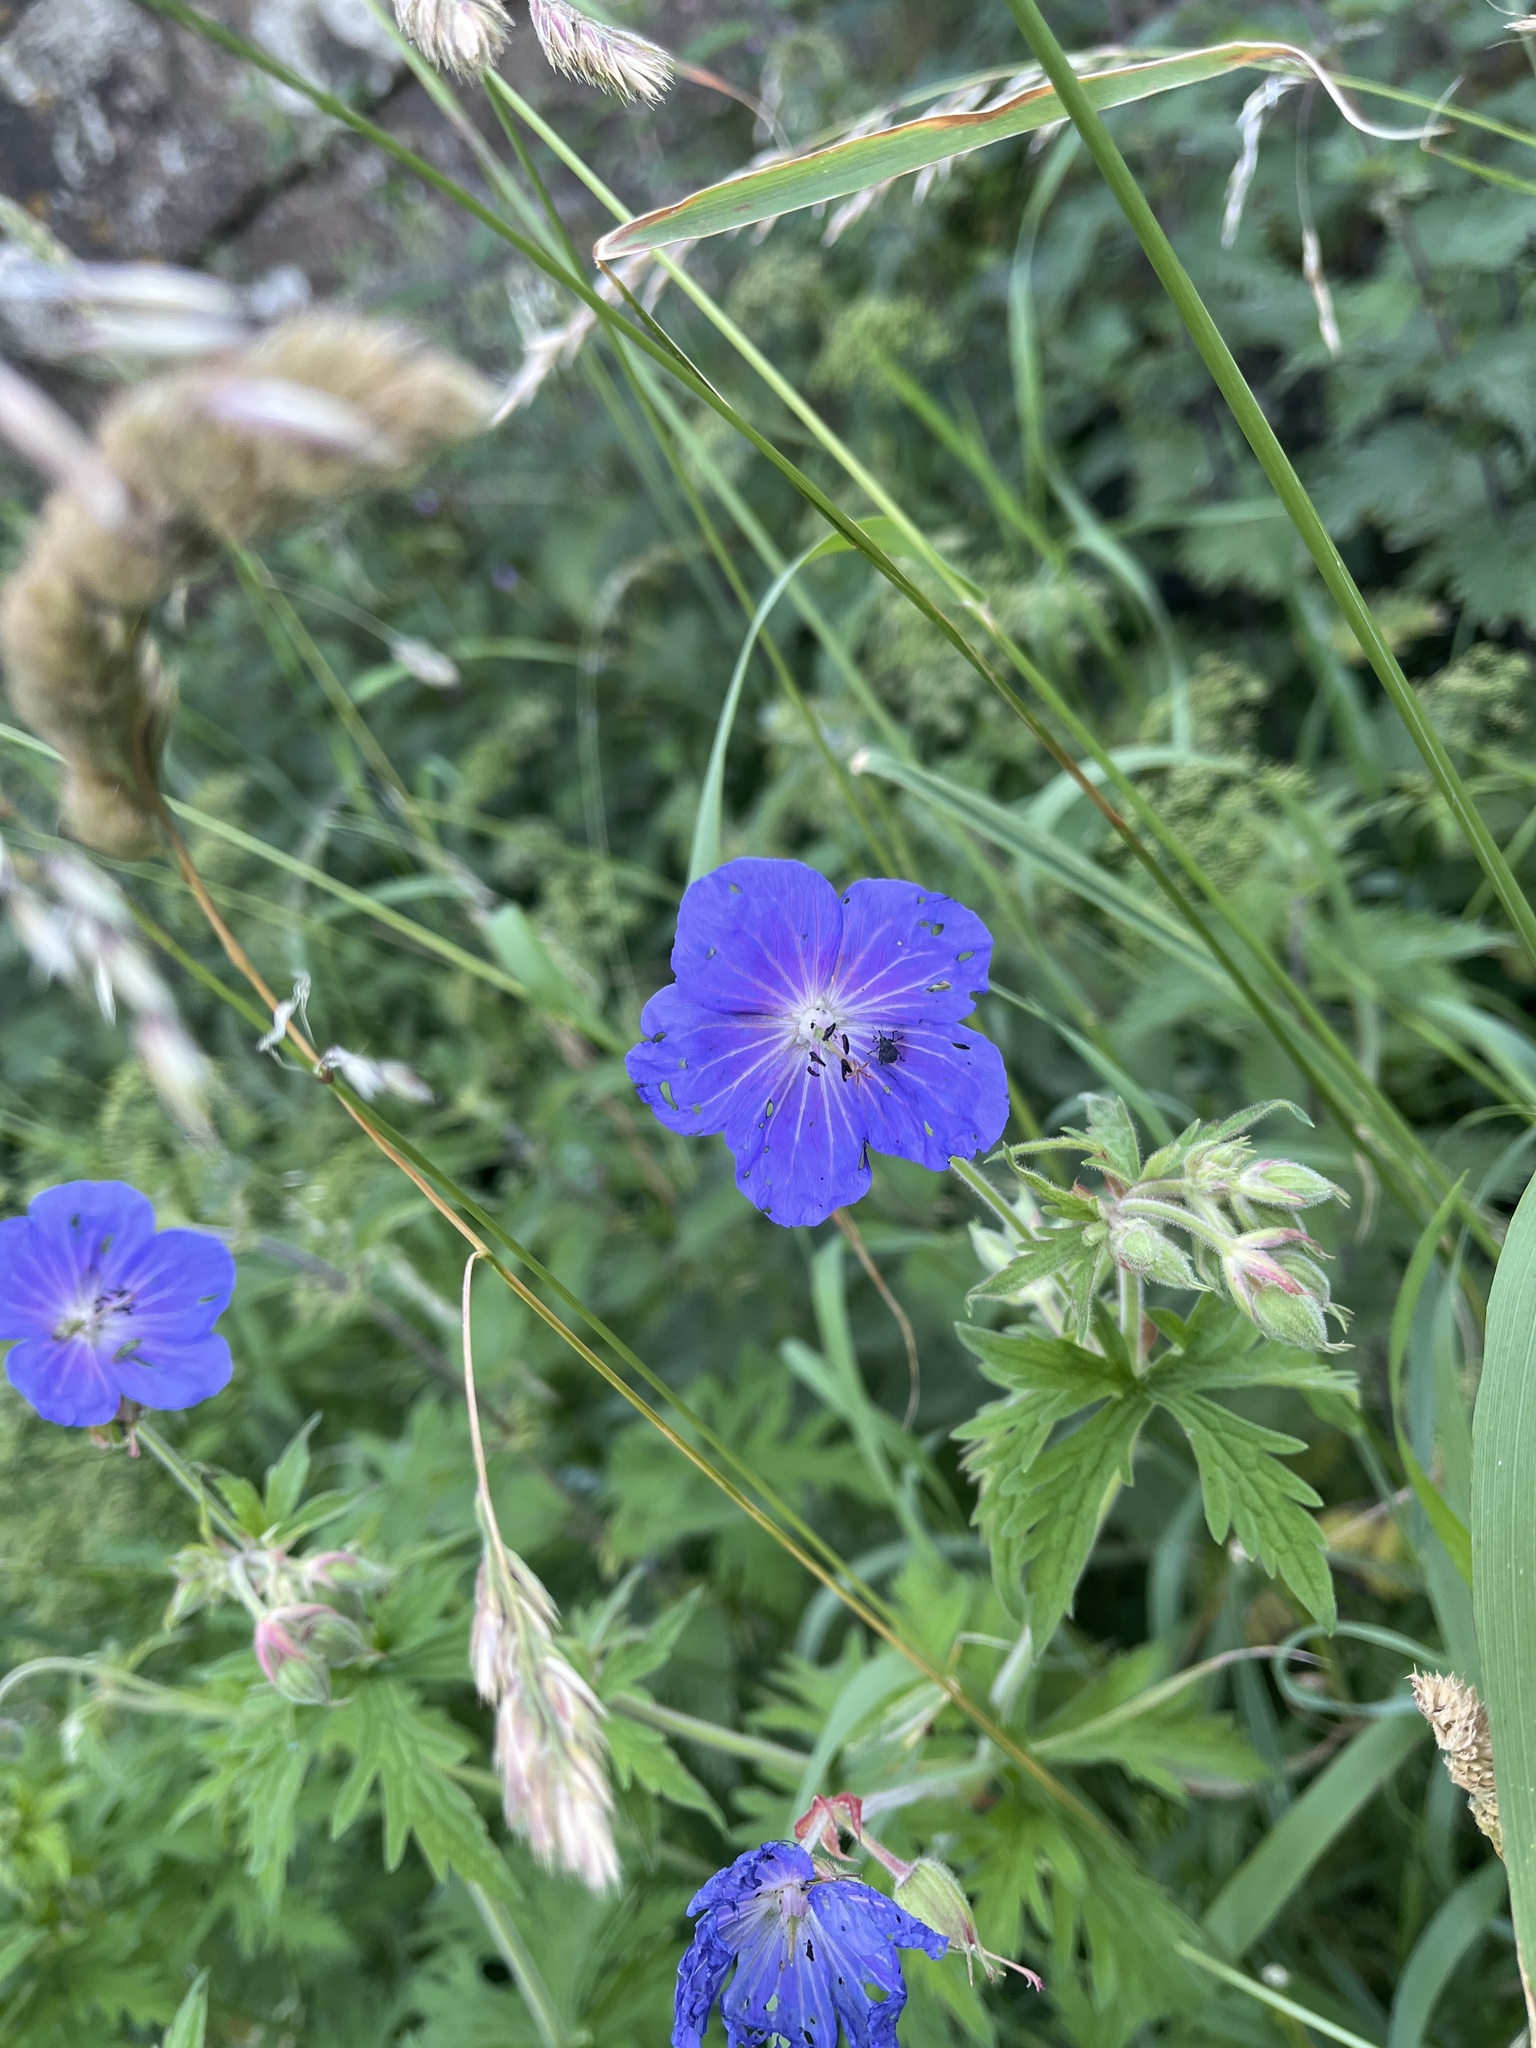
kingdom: Plantae
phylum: Tracheophyta
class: Magnoliopsida
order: Geraniales
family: Geraniaceae
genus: Geranium
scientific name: Geranium pratense
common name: Meadow crane's-bill
